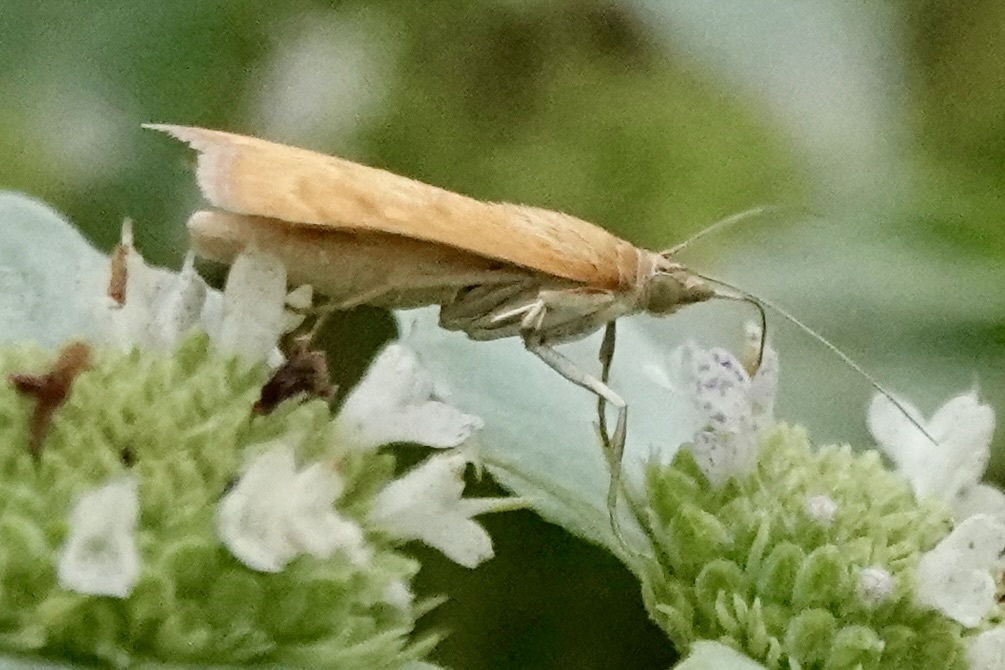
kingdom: Animalia
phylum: Arthropoda
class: Insecta
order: Lepidoptera
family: Crambidae
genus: Achyra
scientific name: Achyra rantalis
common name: Garden webworm
